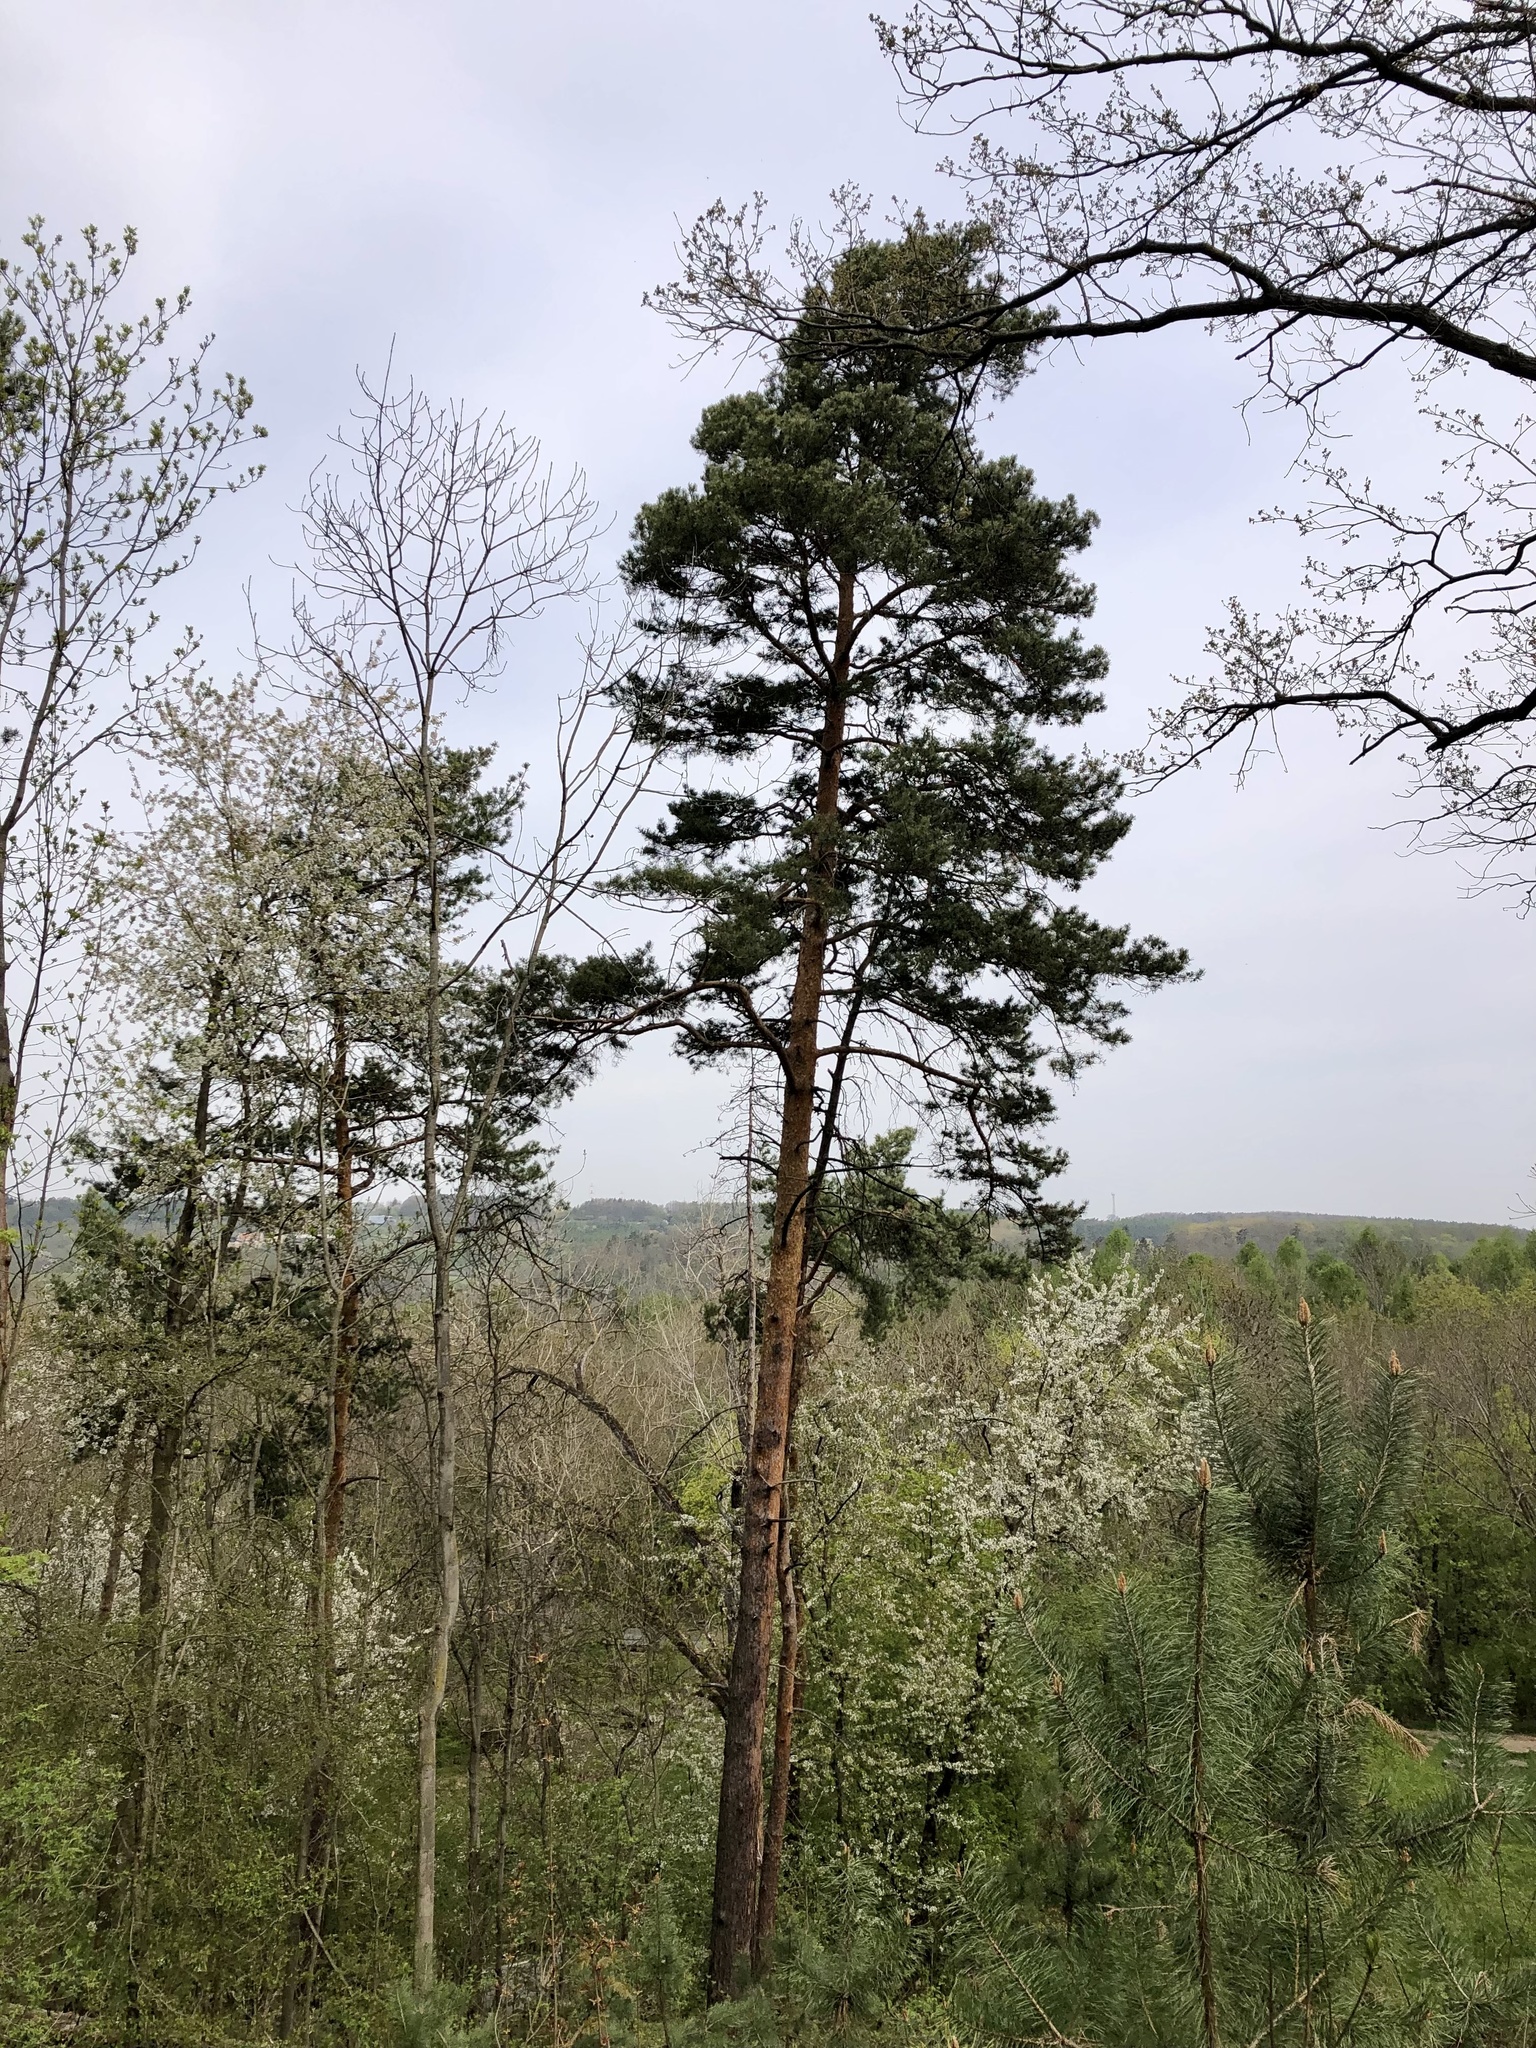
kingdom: Plantae
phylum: Tracheophyta
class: Pinopsida
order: Pinales
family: Pinaceae
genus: Pinus
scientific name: Pinus sylvestris
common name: Scots pine
